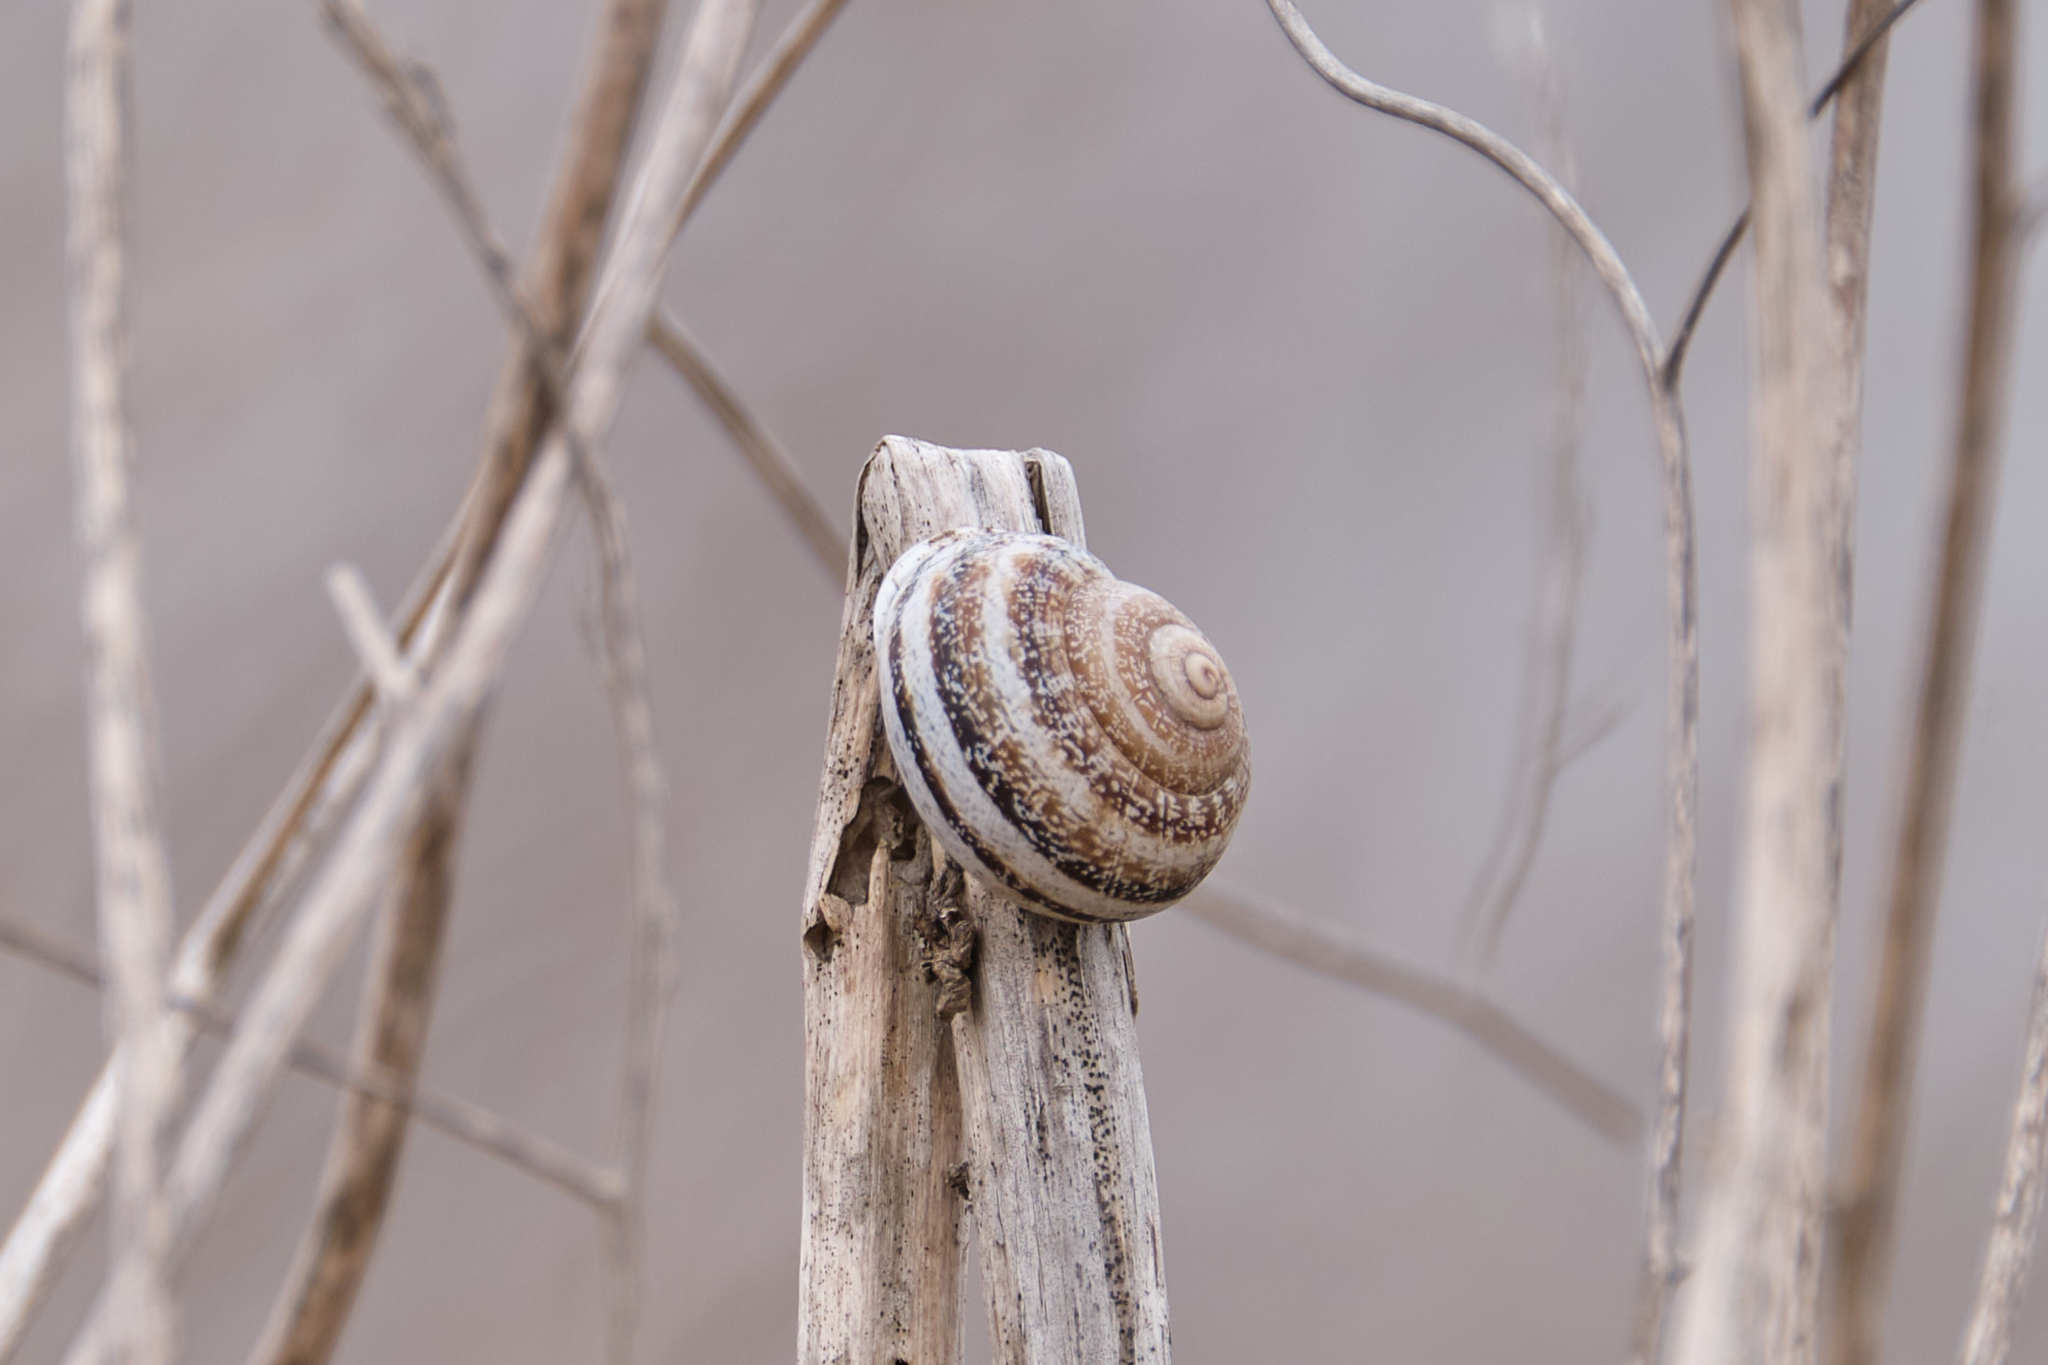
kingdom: Animalia
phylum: Mollusca
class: Gastropoda
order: Stylommatophora
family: Helicidae
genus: Otala
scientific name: Otala lactea
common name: Milk snail
